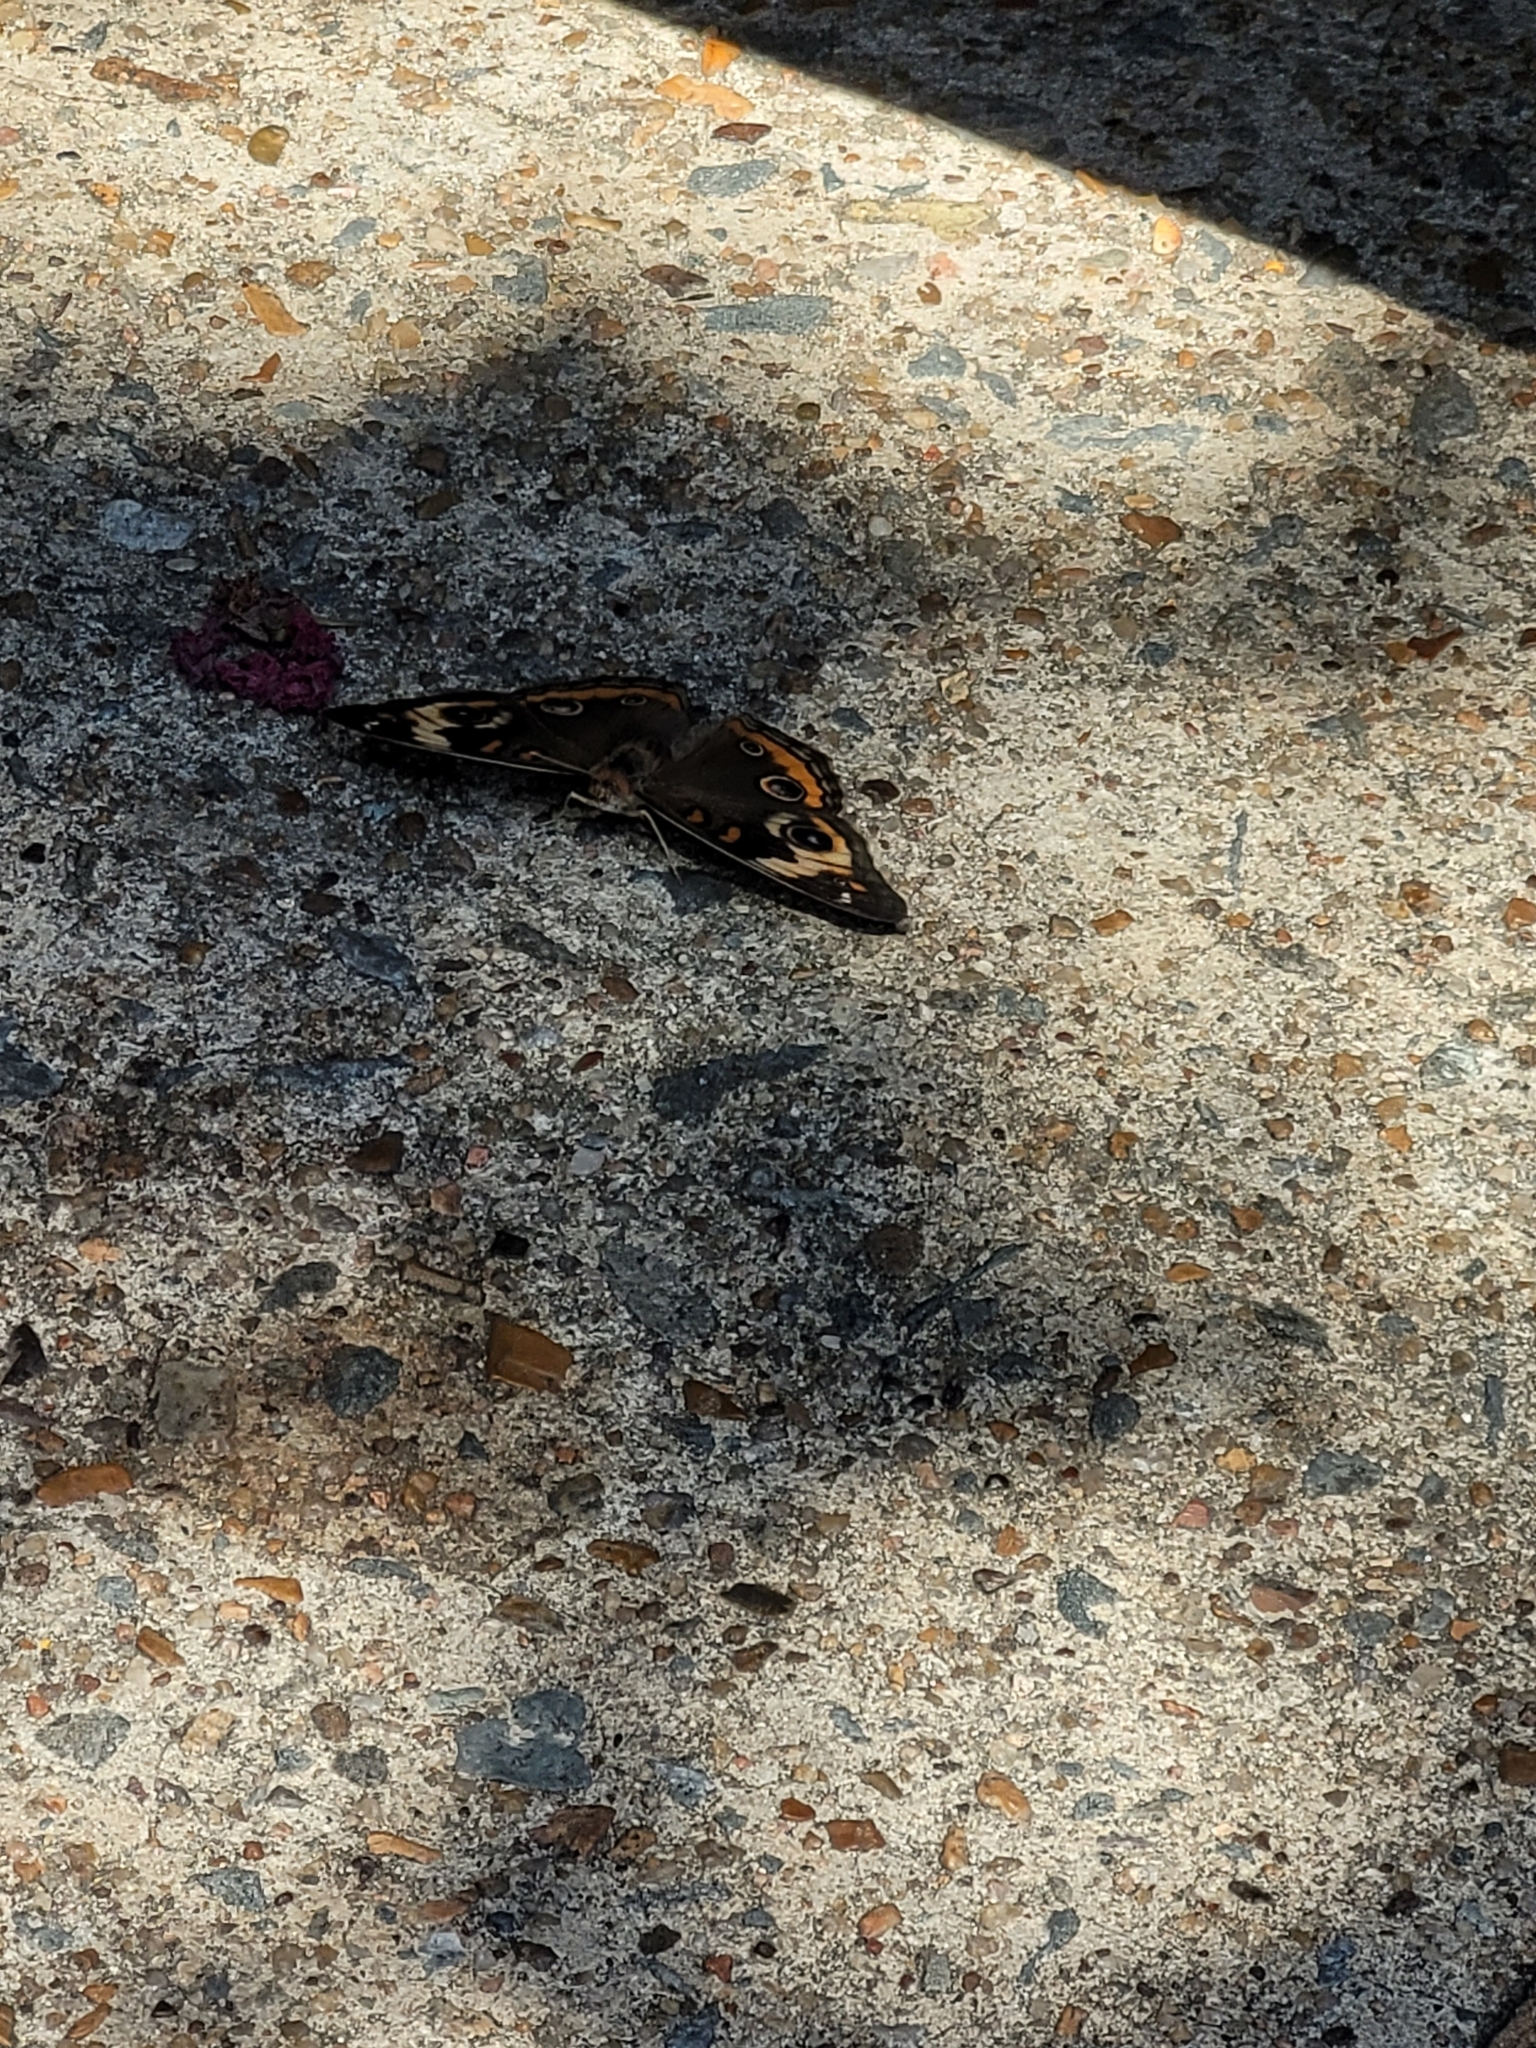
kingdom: Animalia
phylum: Arthropoda
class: Insecta
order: Lepidoptera
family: Nymphalidae
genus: Junonia
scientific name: Junonia coenia
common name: Common buckeye
